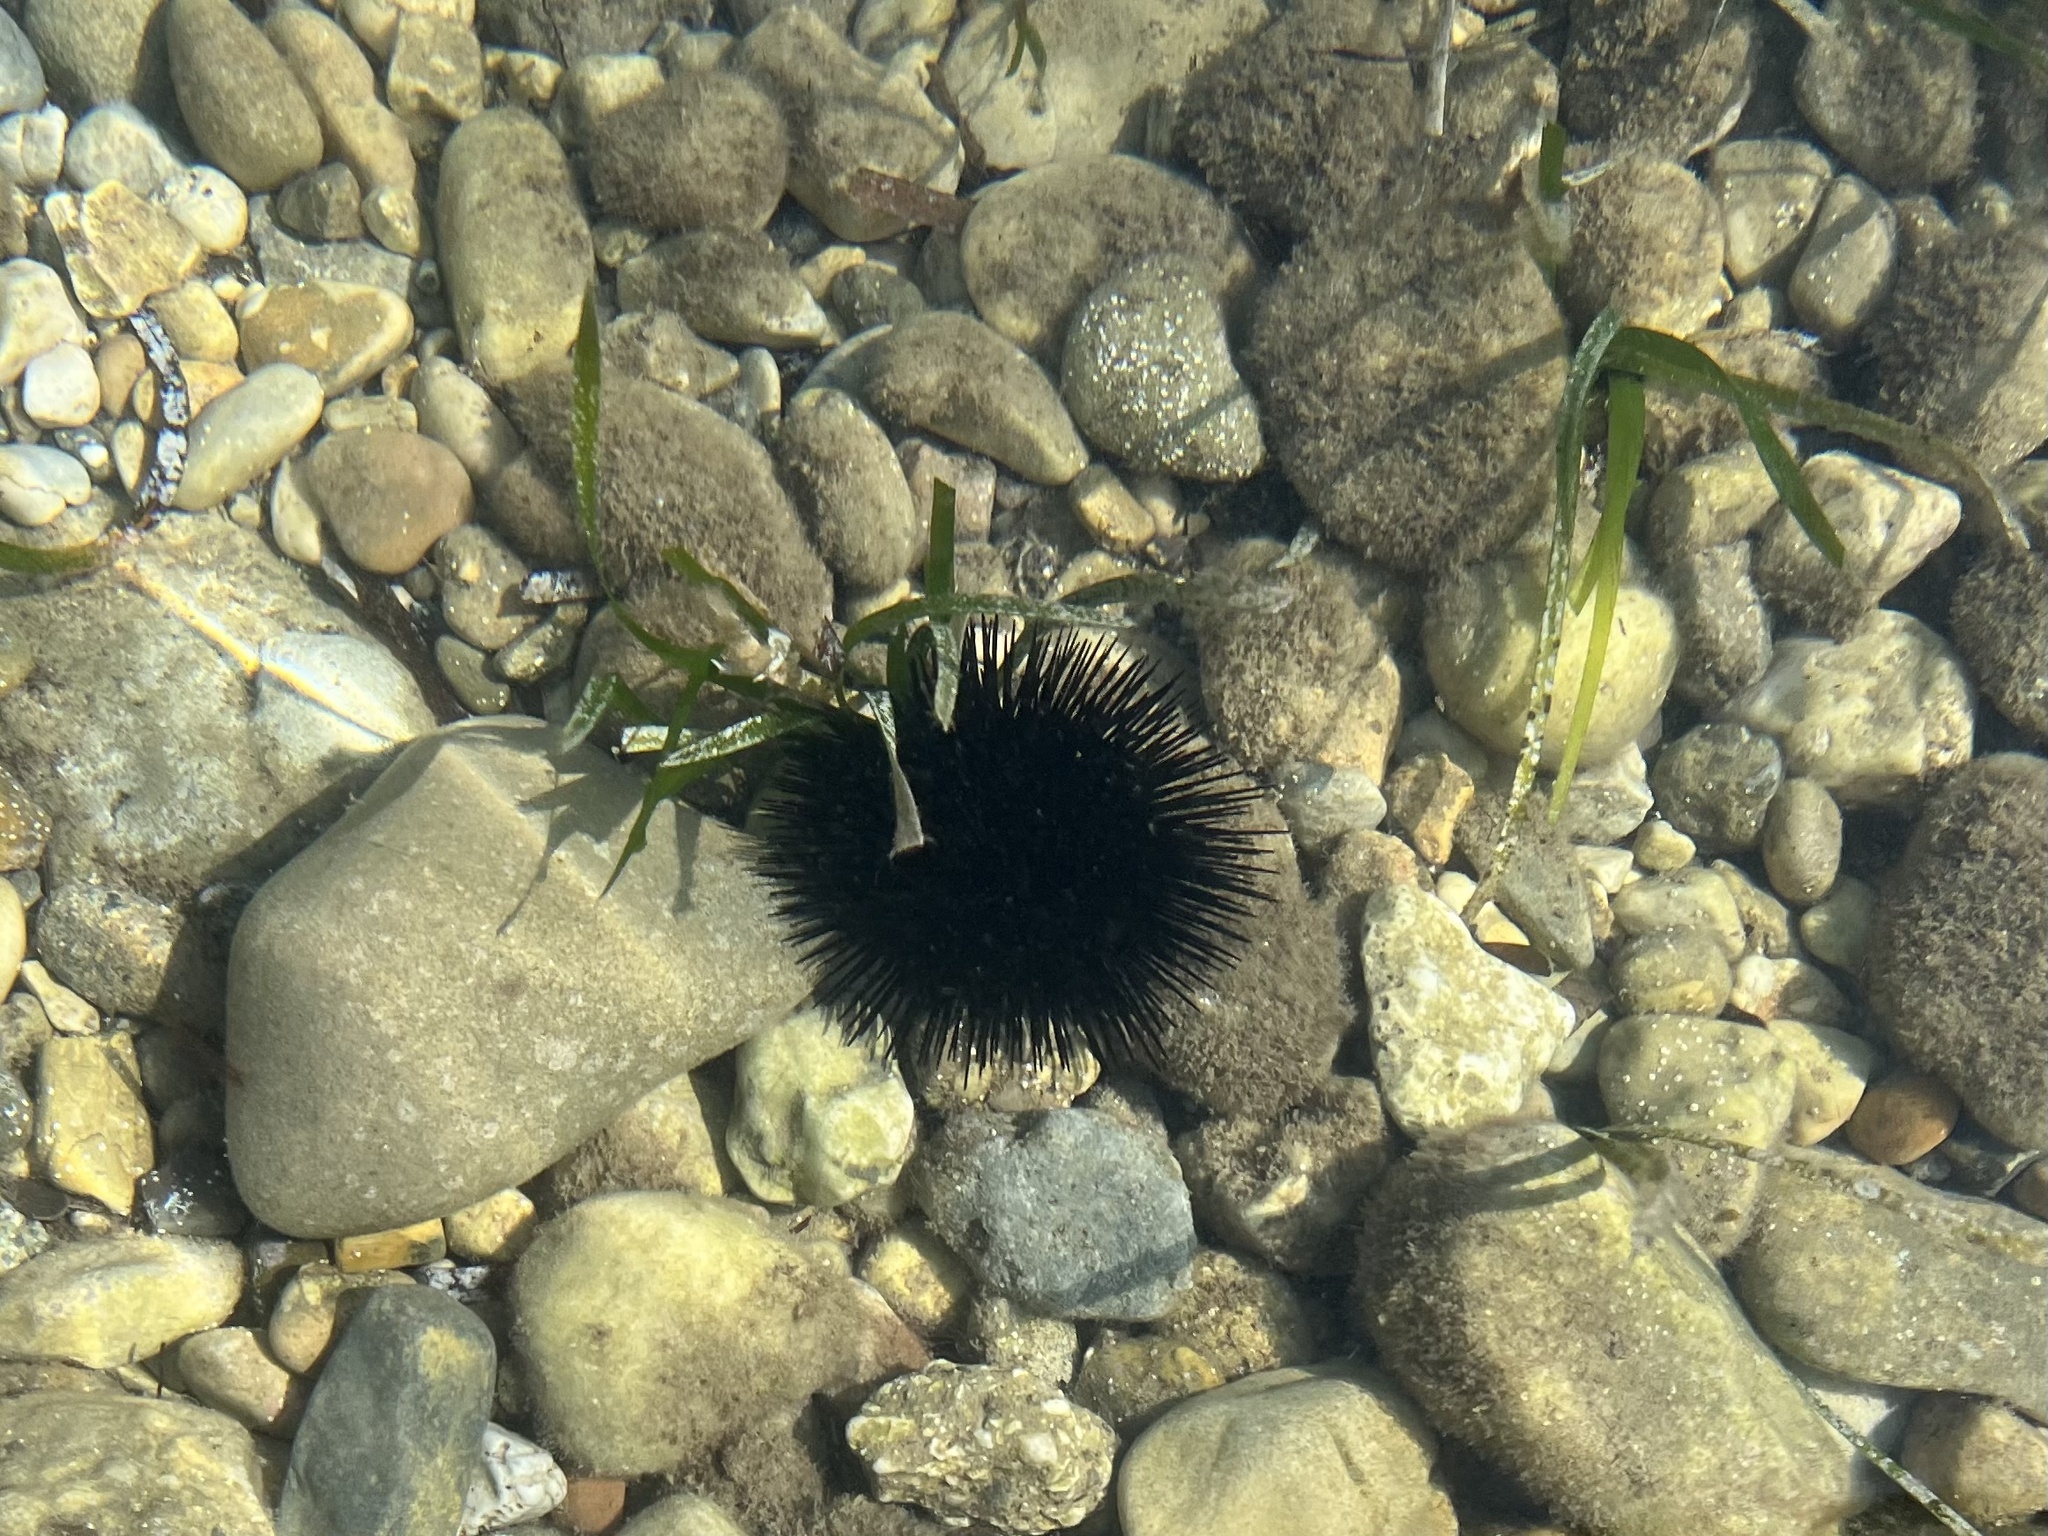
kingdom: Animalia
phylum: Echinodermata
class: Echinoidea
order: Arbacioida
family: Arbaciidae
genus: Arbacia
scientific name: Arbacia lixula
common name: Black sea urchin
